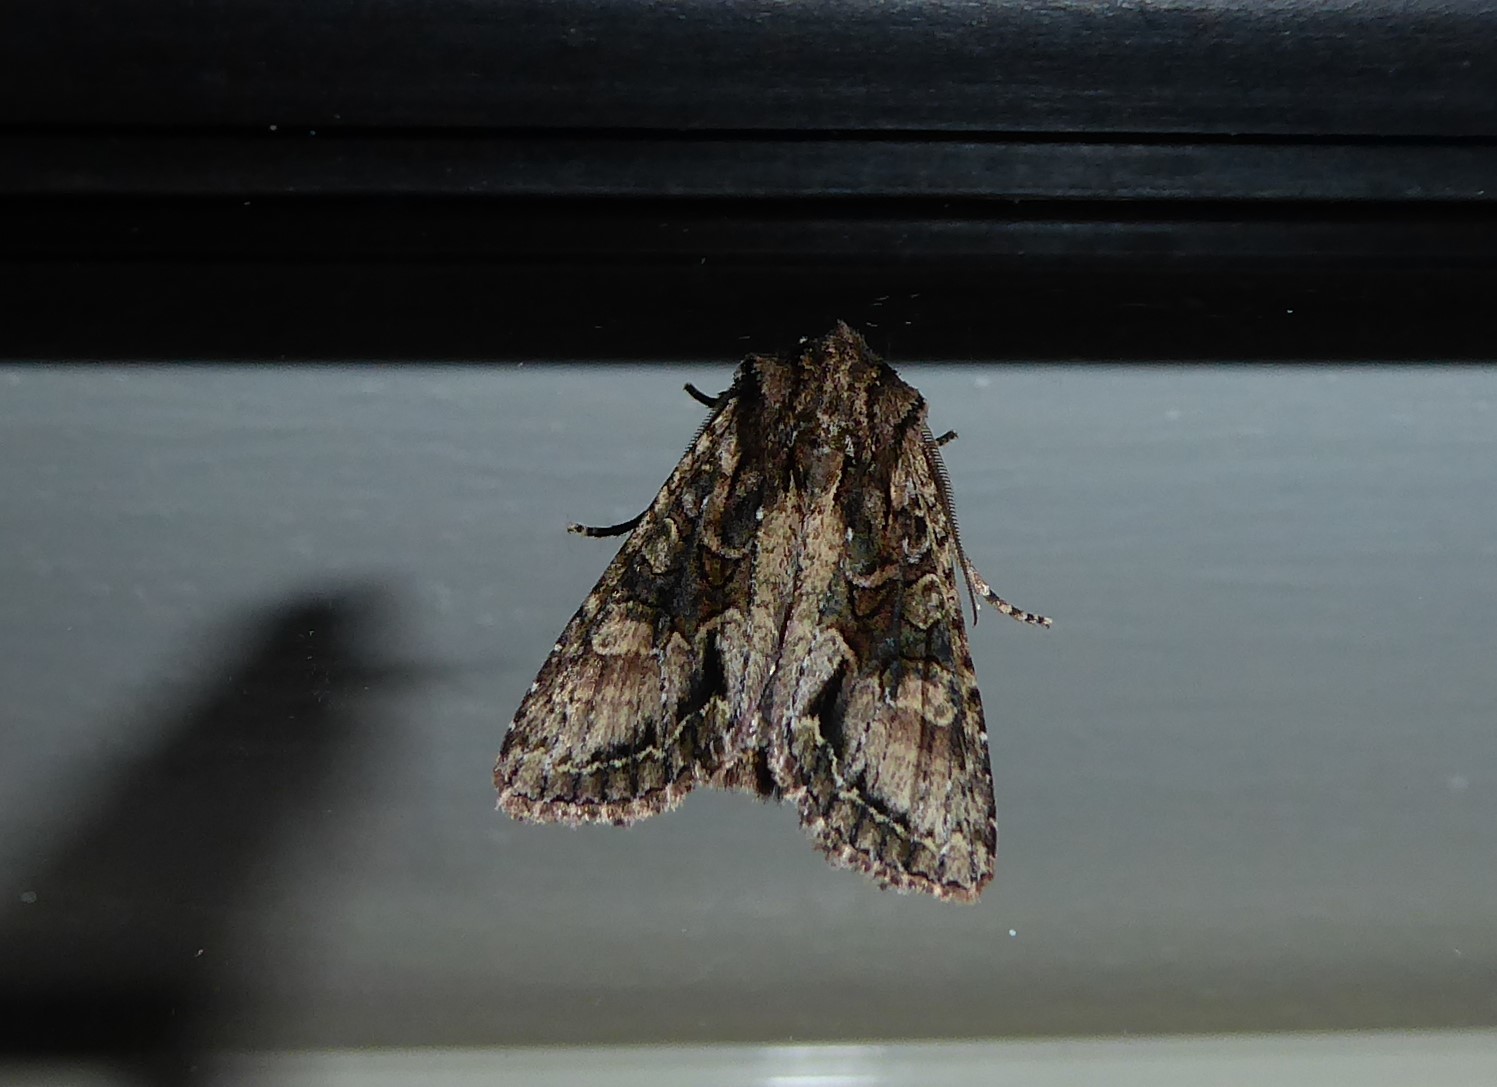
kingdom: Animalia
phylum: Arthropoda
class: Insecta
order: Lepidoptera
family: Noctuidae
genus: Ichneutica
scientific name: Ichneutica mutans
